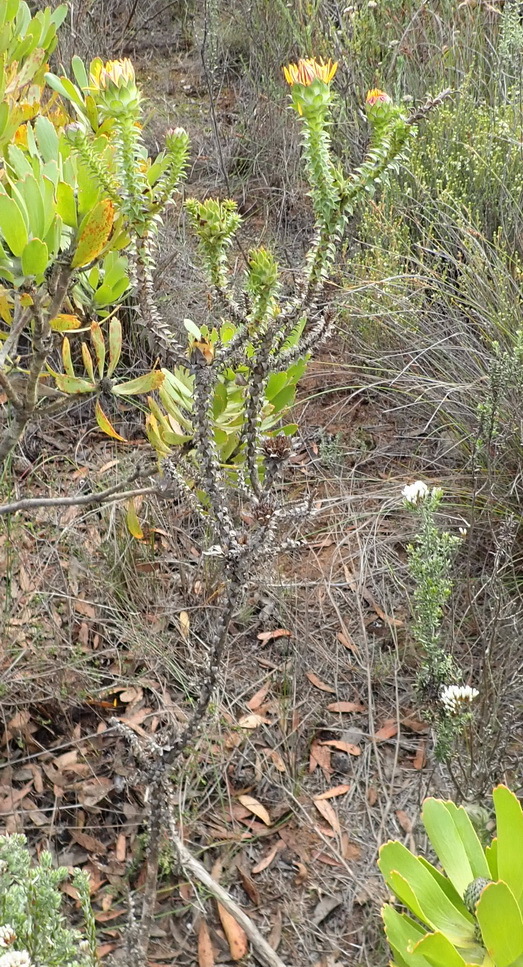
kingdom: Plantae
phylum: Tracheophyta
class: Magnoliopsida
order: Asterales
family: Asteraceae
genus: Oedera
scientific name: Oedera imbricata
